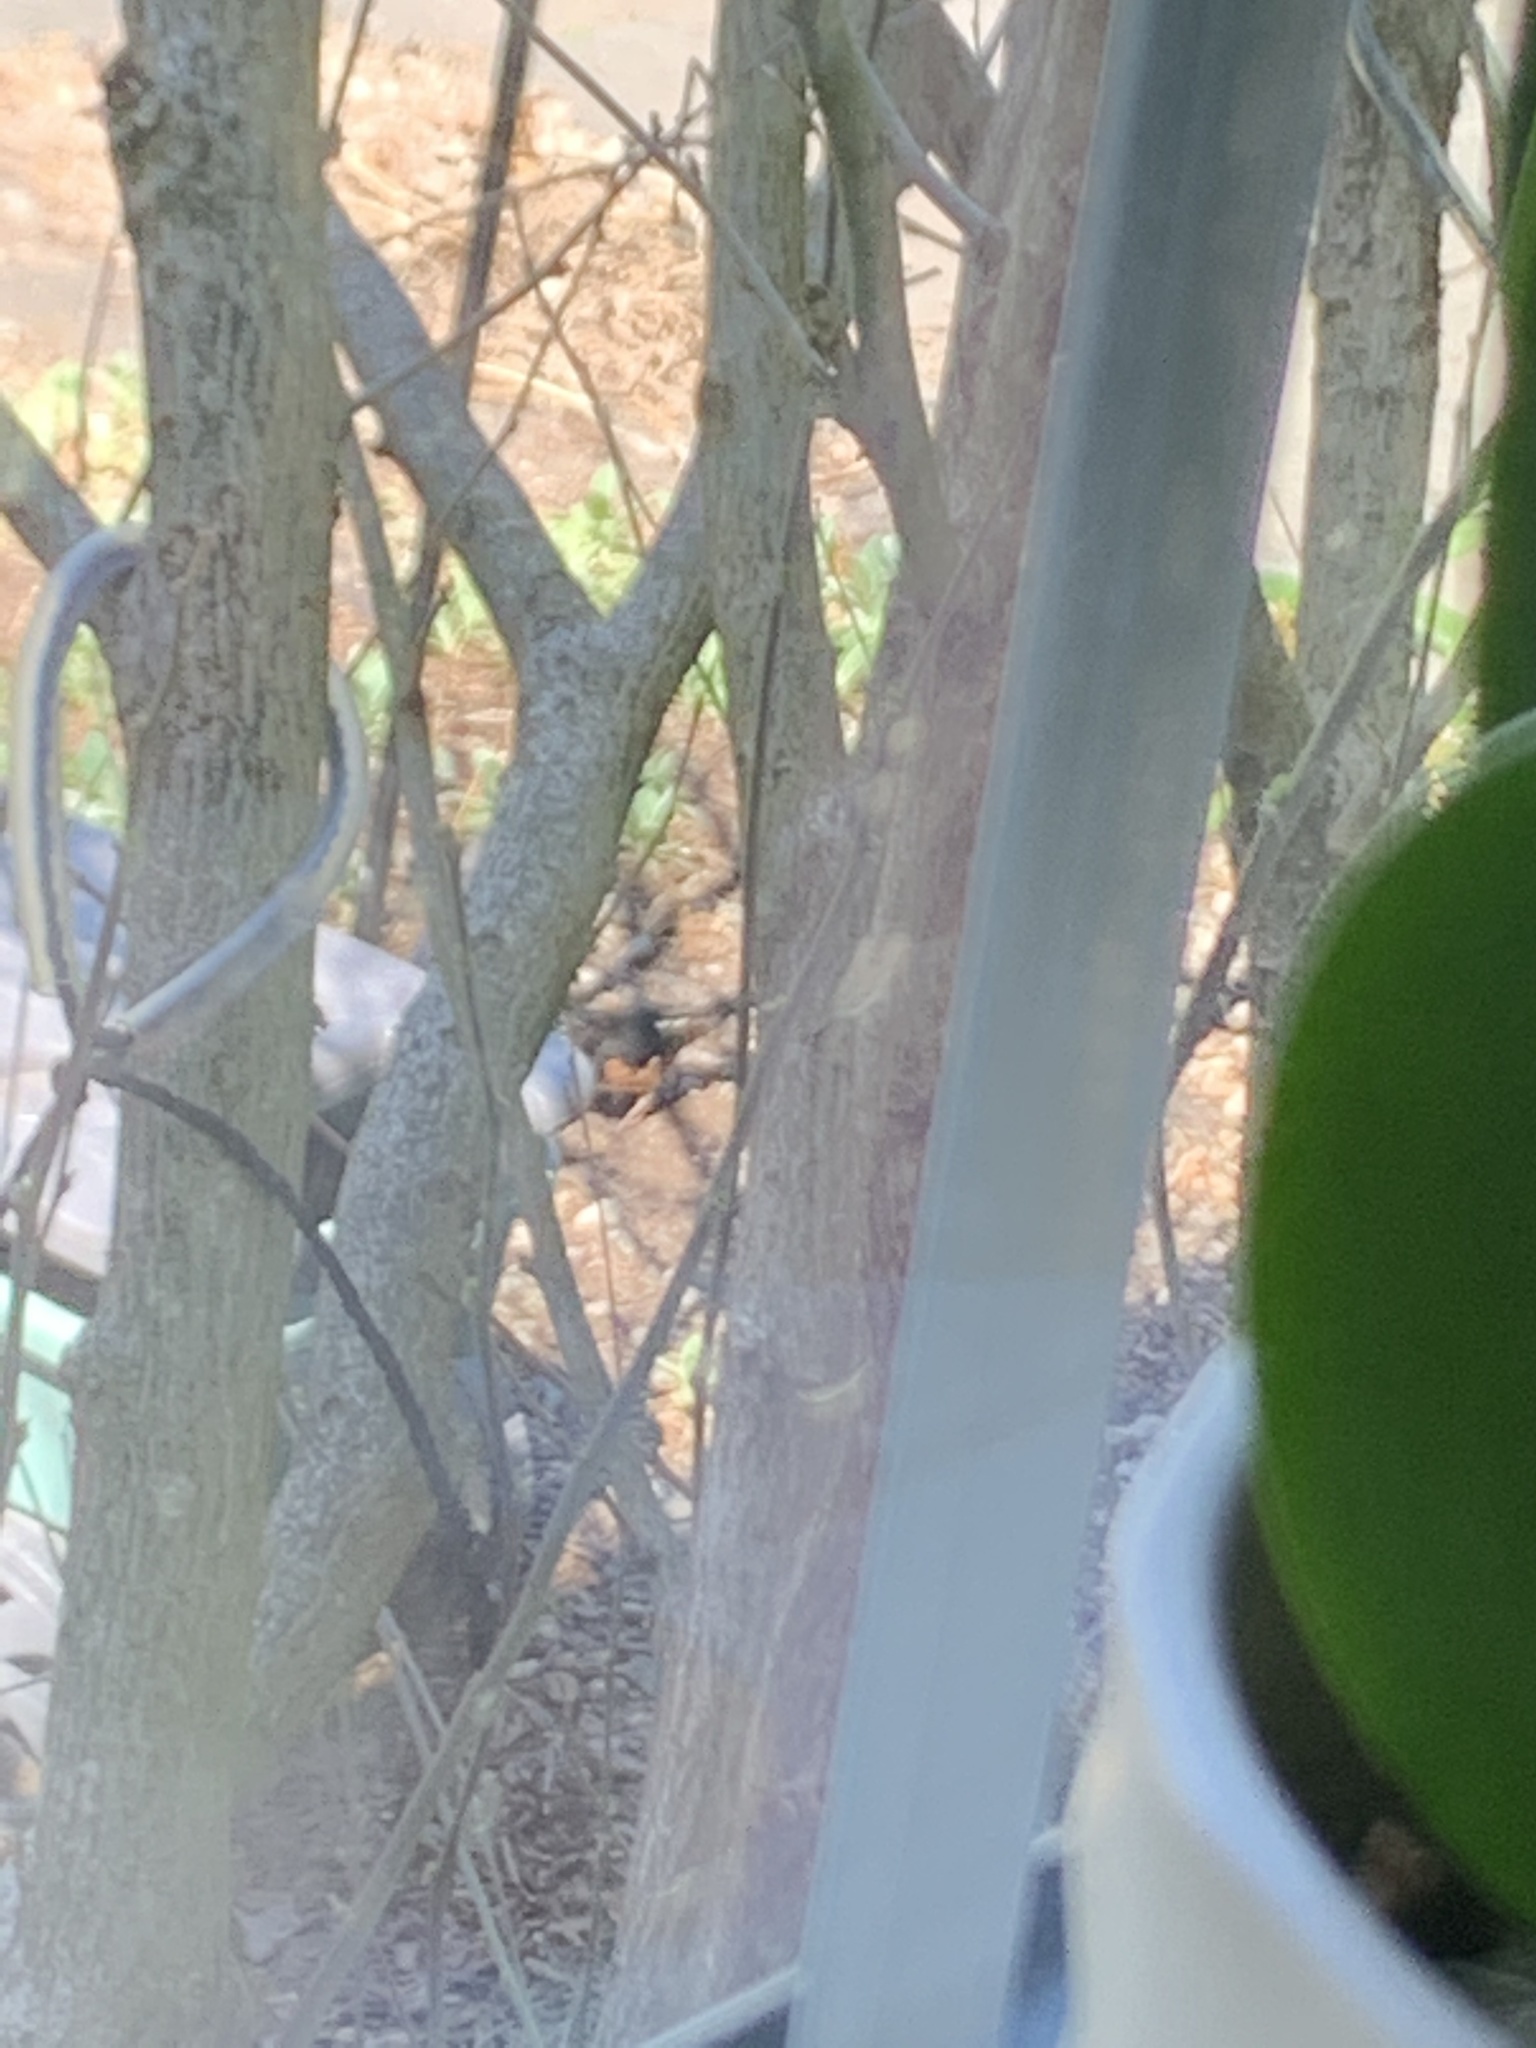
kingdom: Animalia
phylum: Chordata
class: Aves
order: Passeriformes
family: Passerellidae
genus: Pipilo
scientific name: Pipilo erythrophthalmus
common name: Eastern towhee
